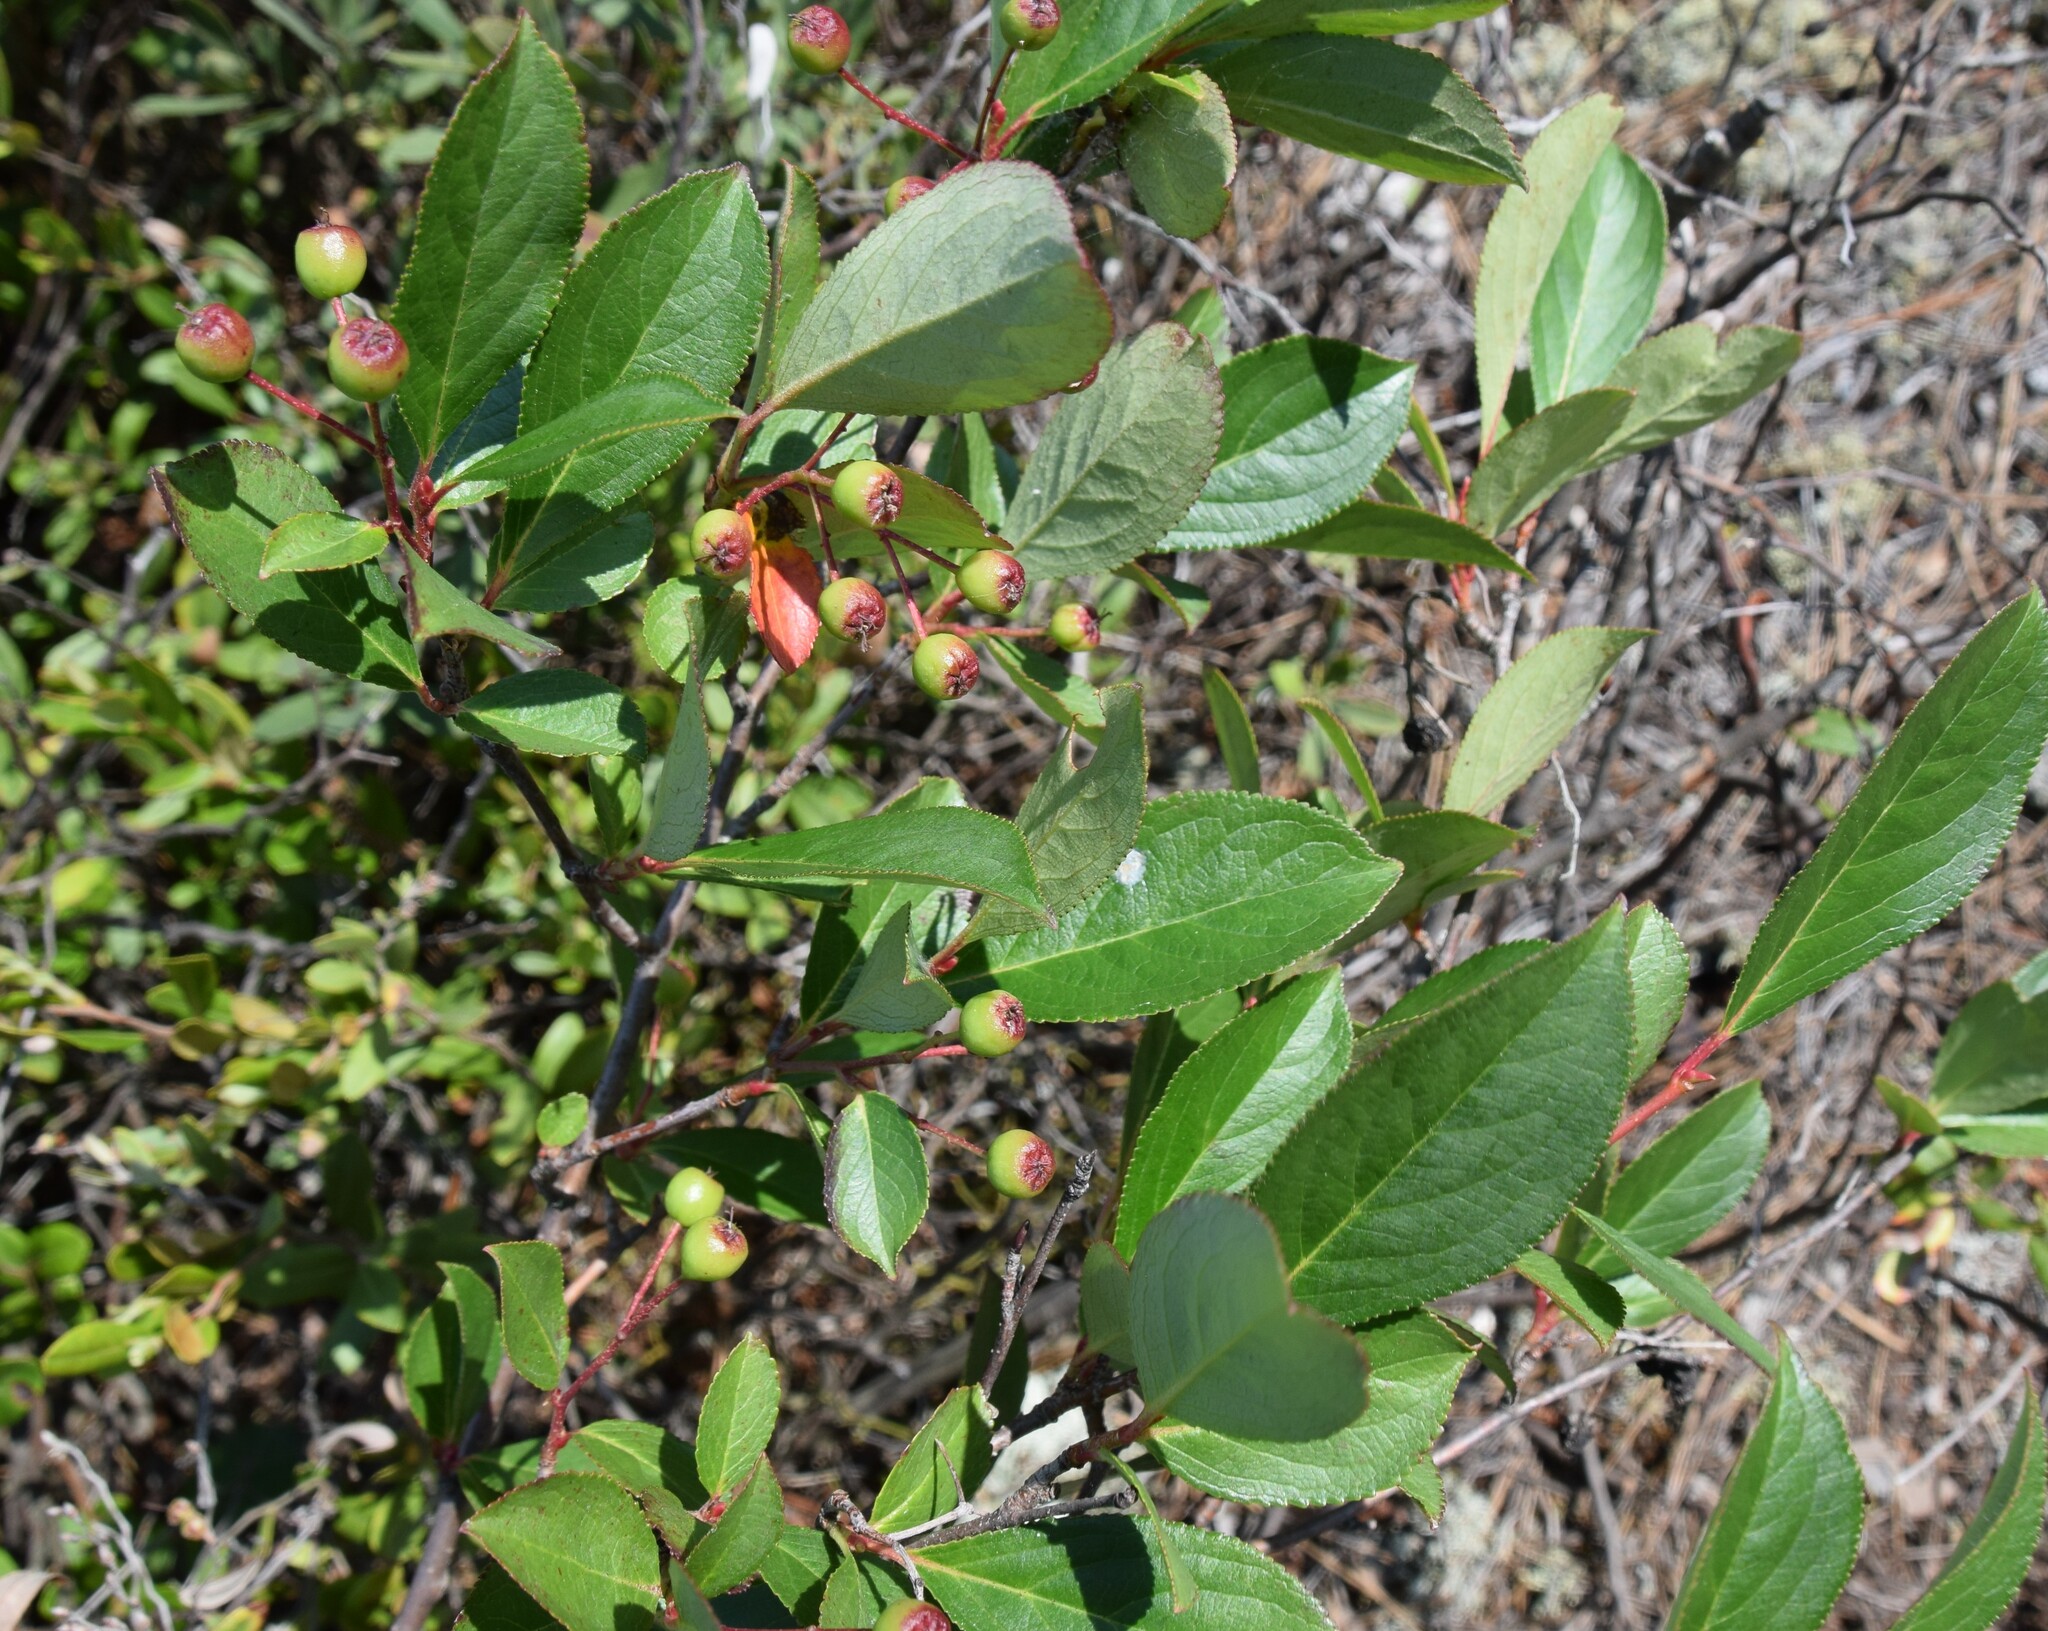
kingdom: Plantae
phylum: Tracheophyta
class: Magnoliopsida
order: Rosales
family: Rosaceae
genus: Aronia
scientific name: Aronia melanocarpa
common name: Black chokeberry
